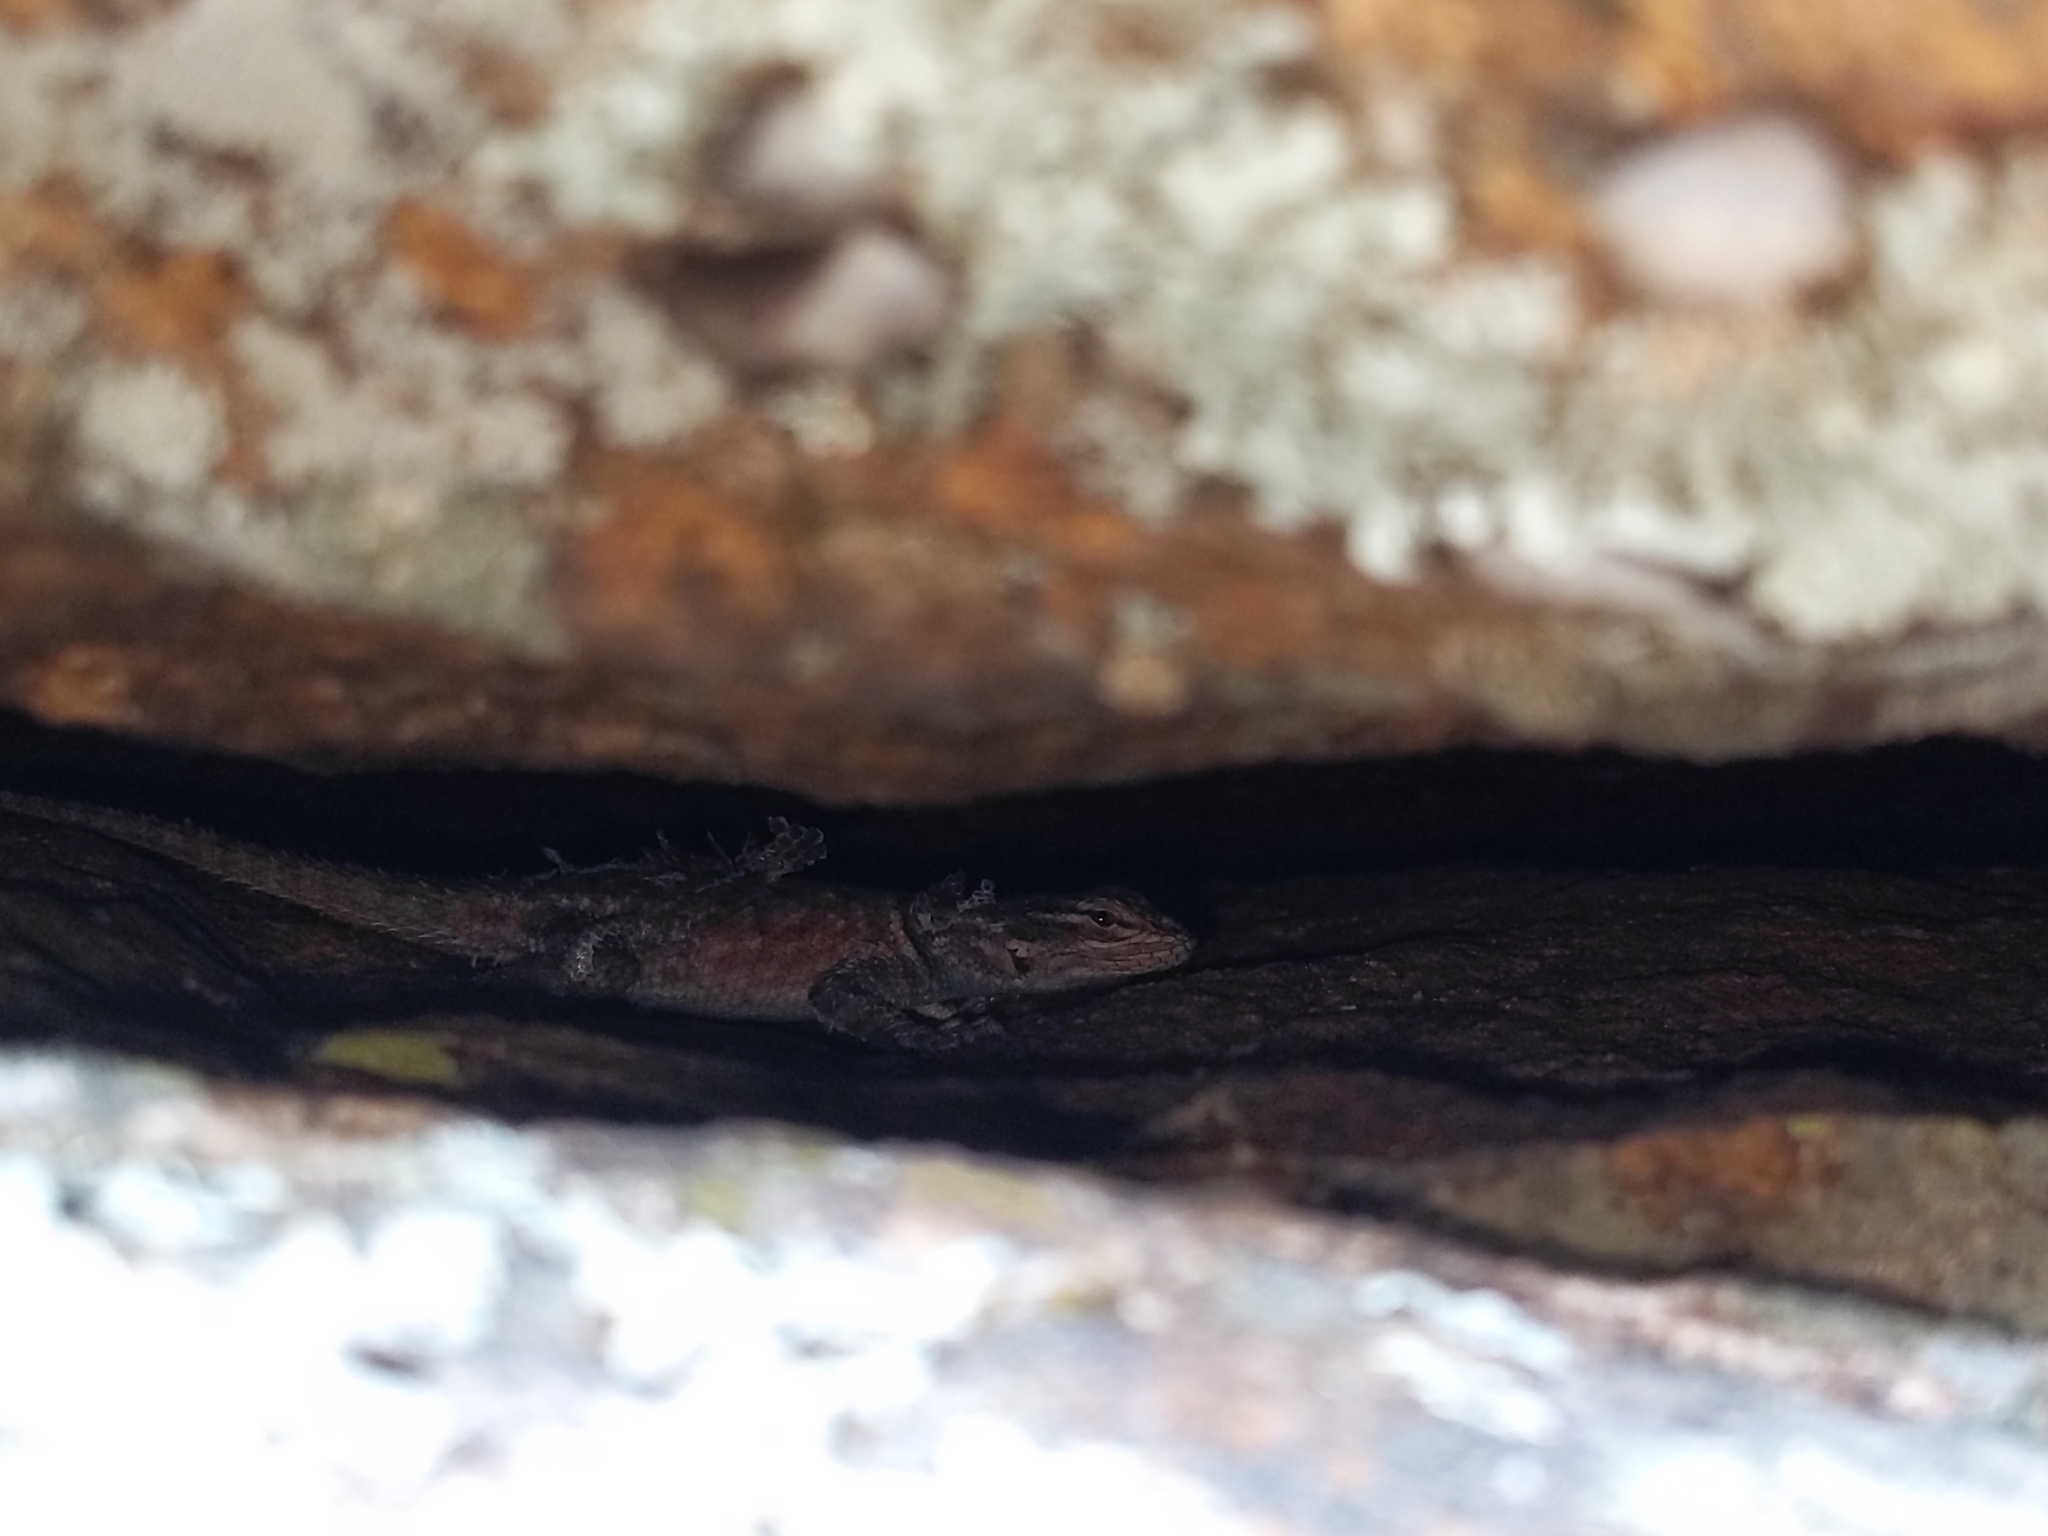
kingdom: Animalia
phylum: Chordata
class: Squamata
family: Phrynosomatidae
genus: Sceloporus
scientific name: Sceloporus jarrovii
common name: Yarrow's spiny lizard
